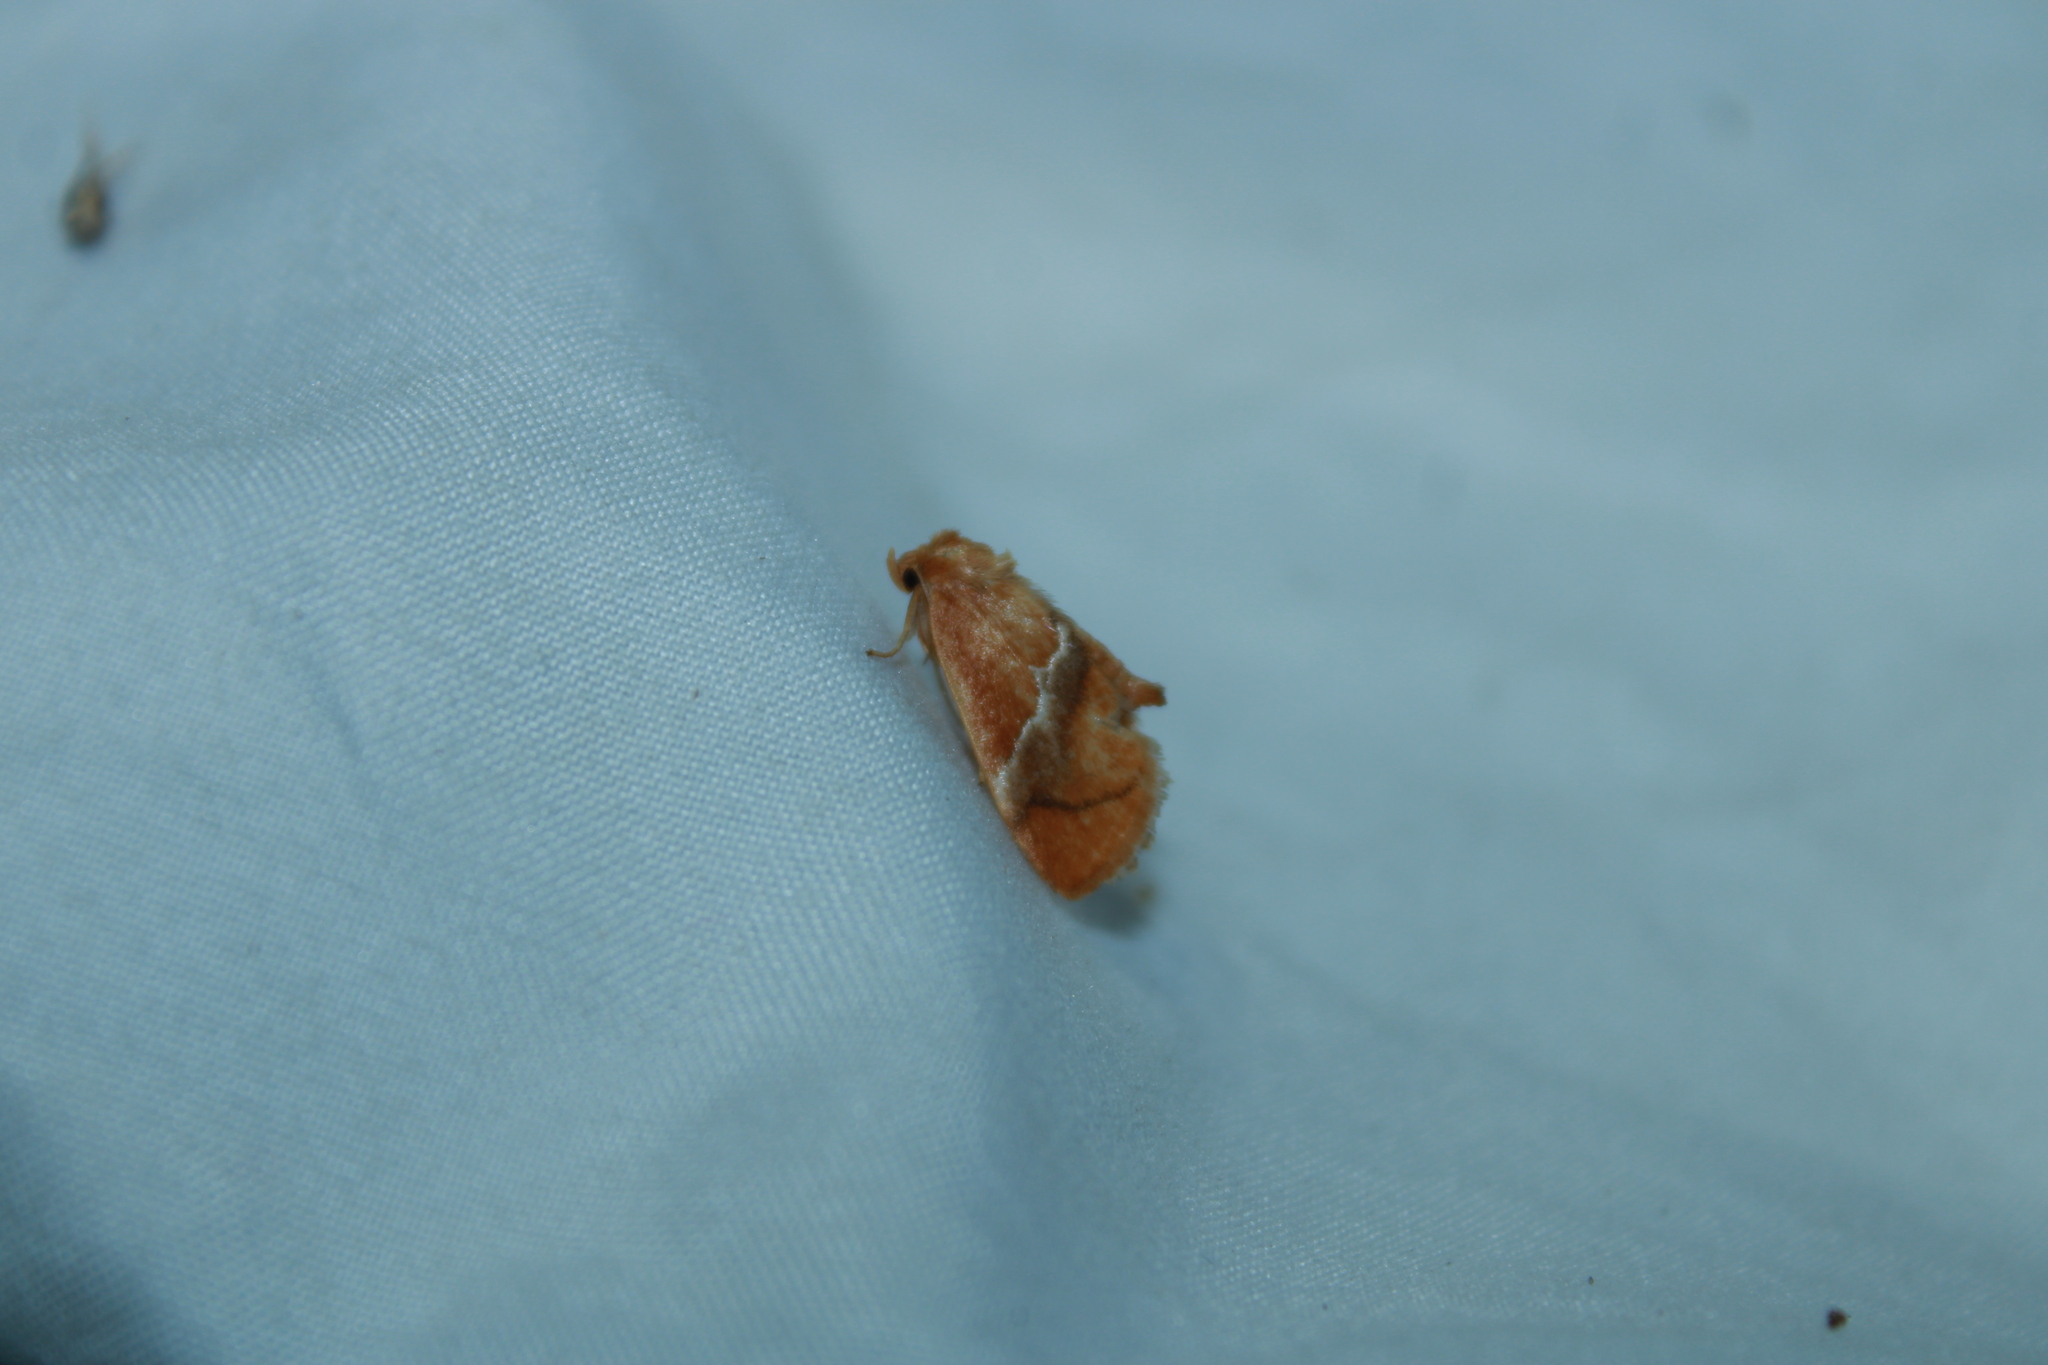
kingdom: Animalia
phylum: Arthropoda
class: Insecta
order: Lepidoptera
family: Limacodidae
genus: Lithacodes
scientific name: Lithacodes fasciola
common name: Yellow-shouldered slug moth
